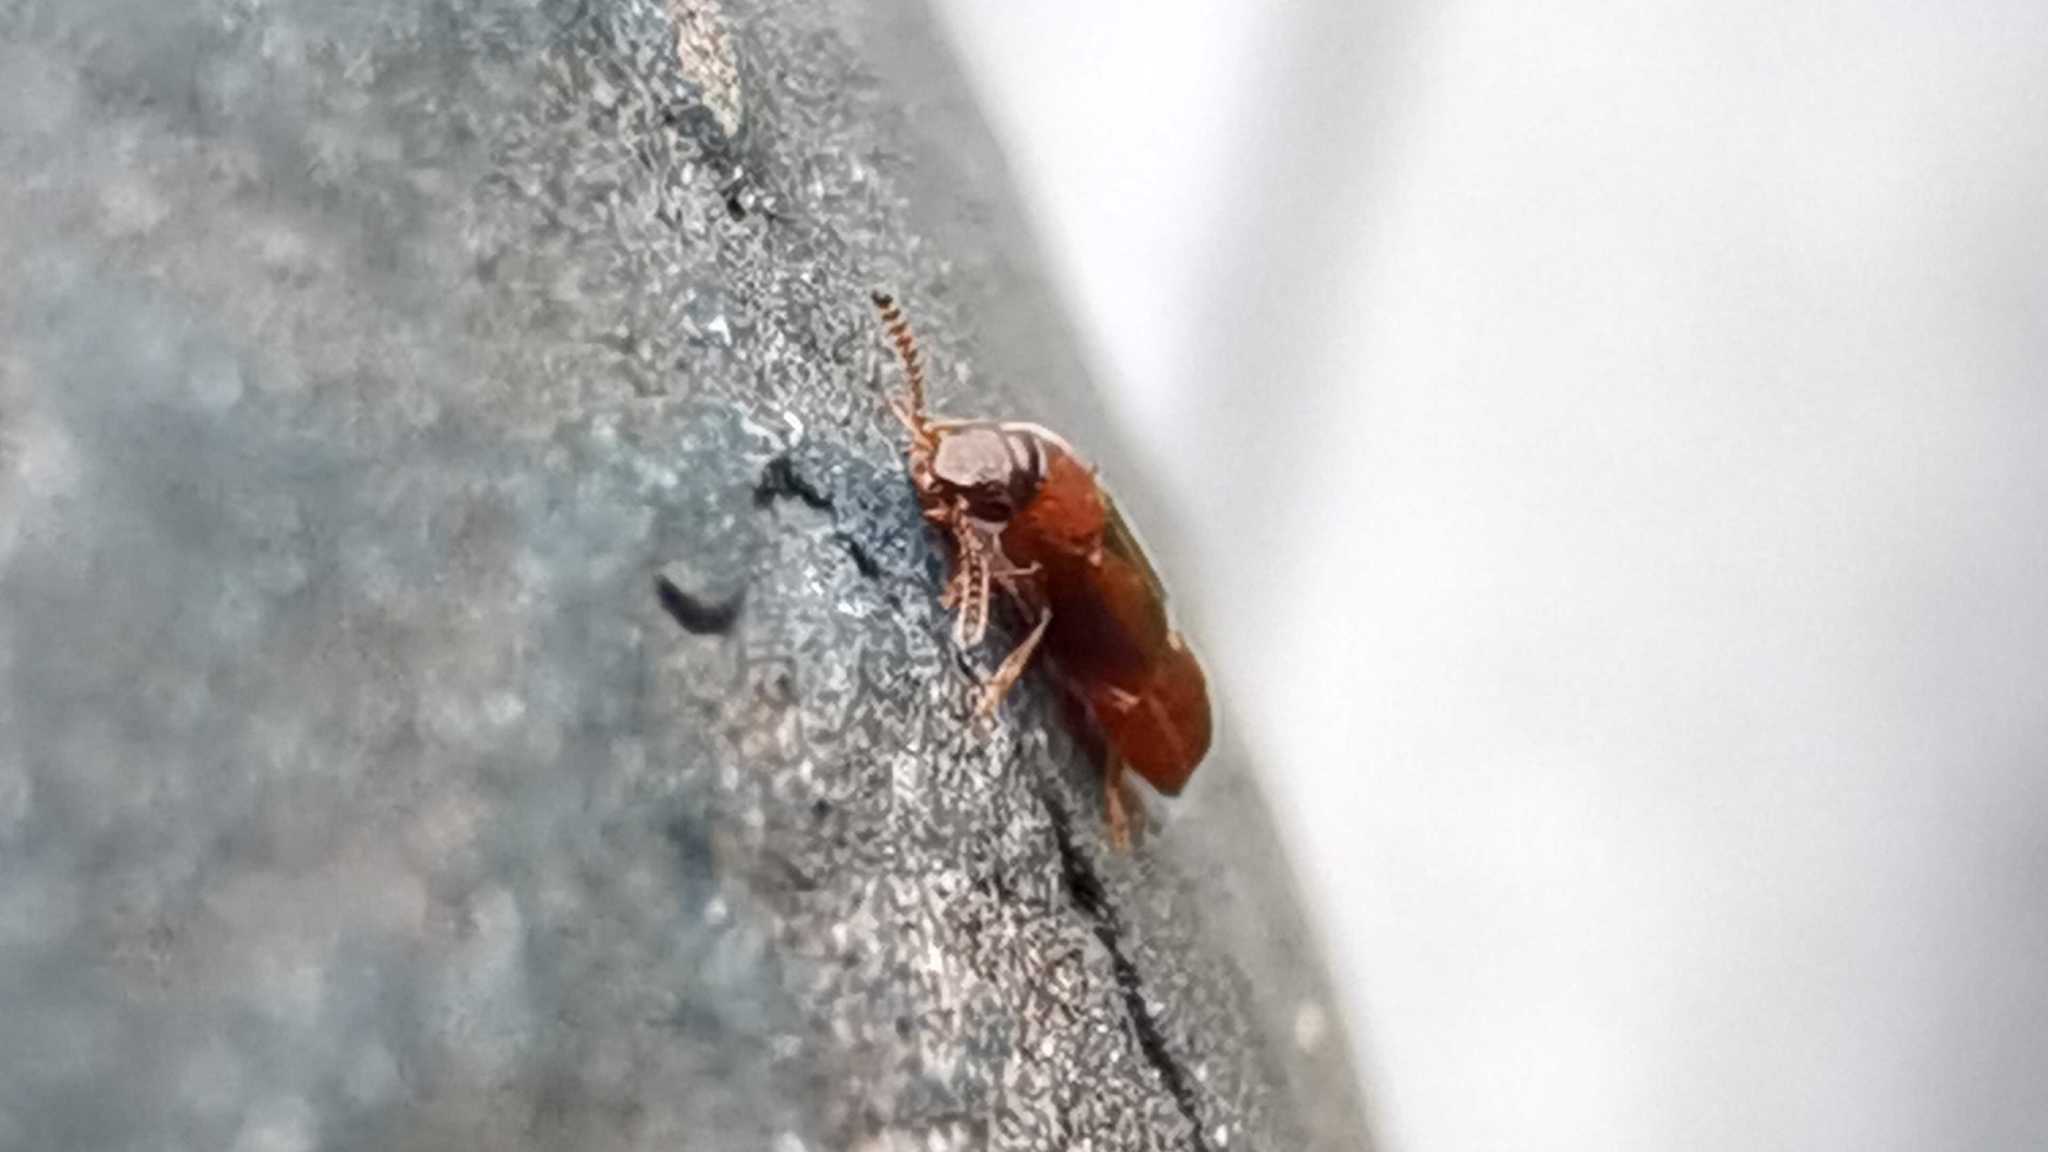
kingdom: Animalia
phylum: Arthropoda
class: Insecta
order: Coleoptera
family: Staphylinidae
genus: Dropephylla
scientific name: Dropephylla ioptera
